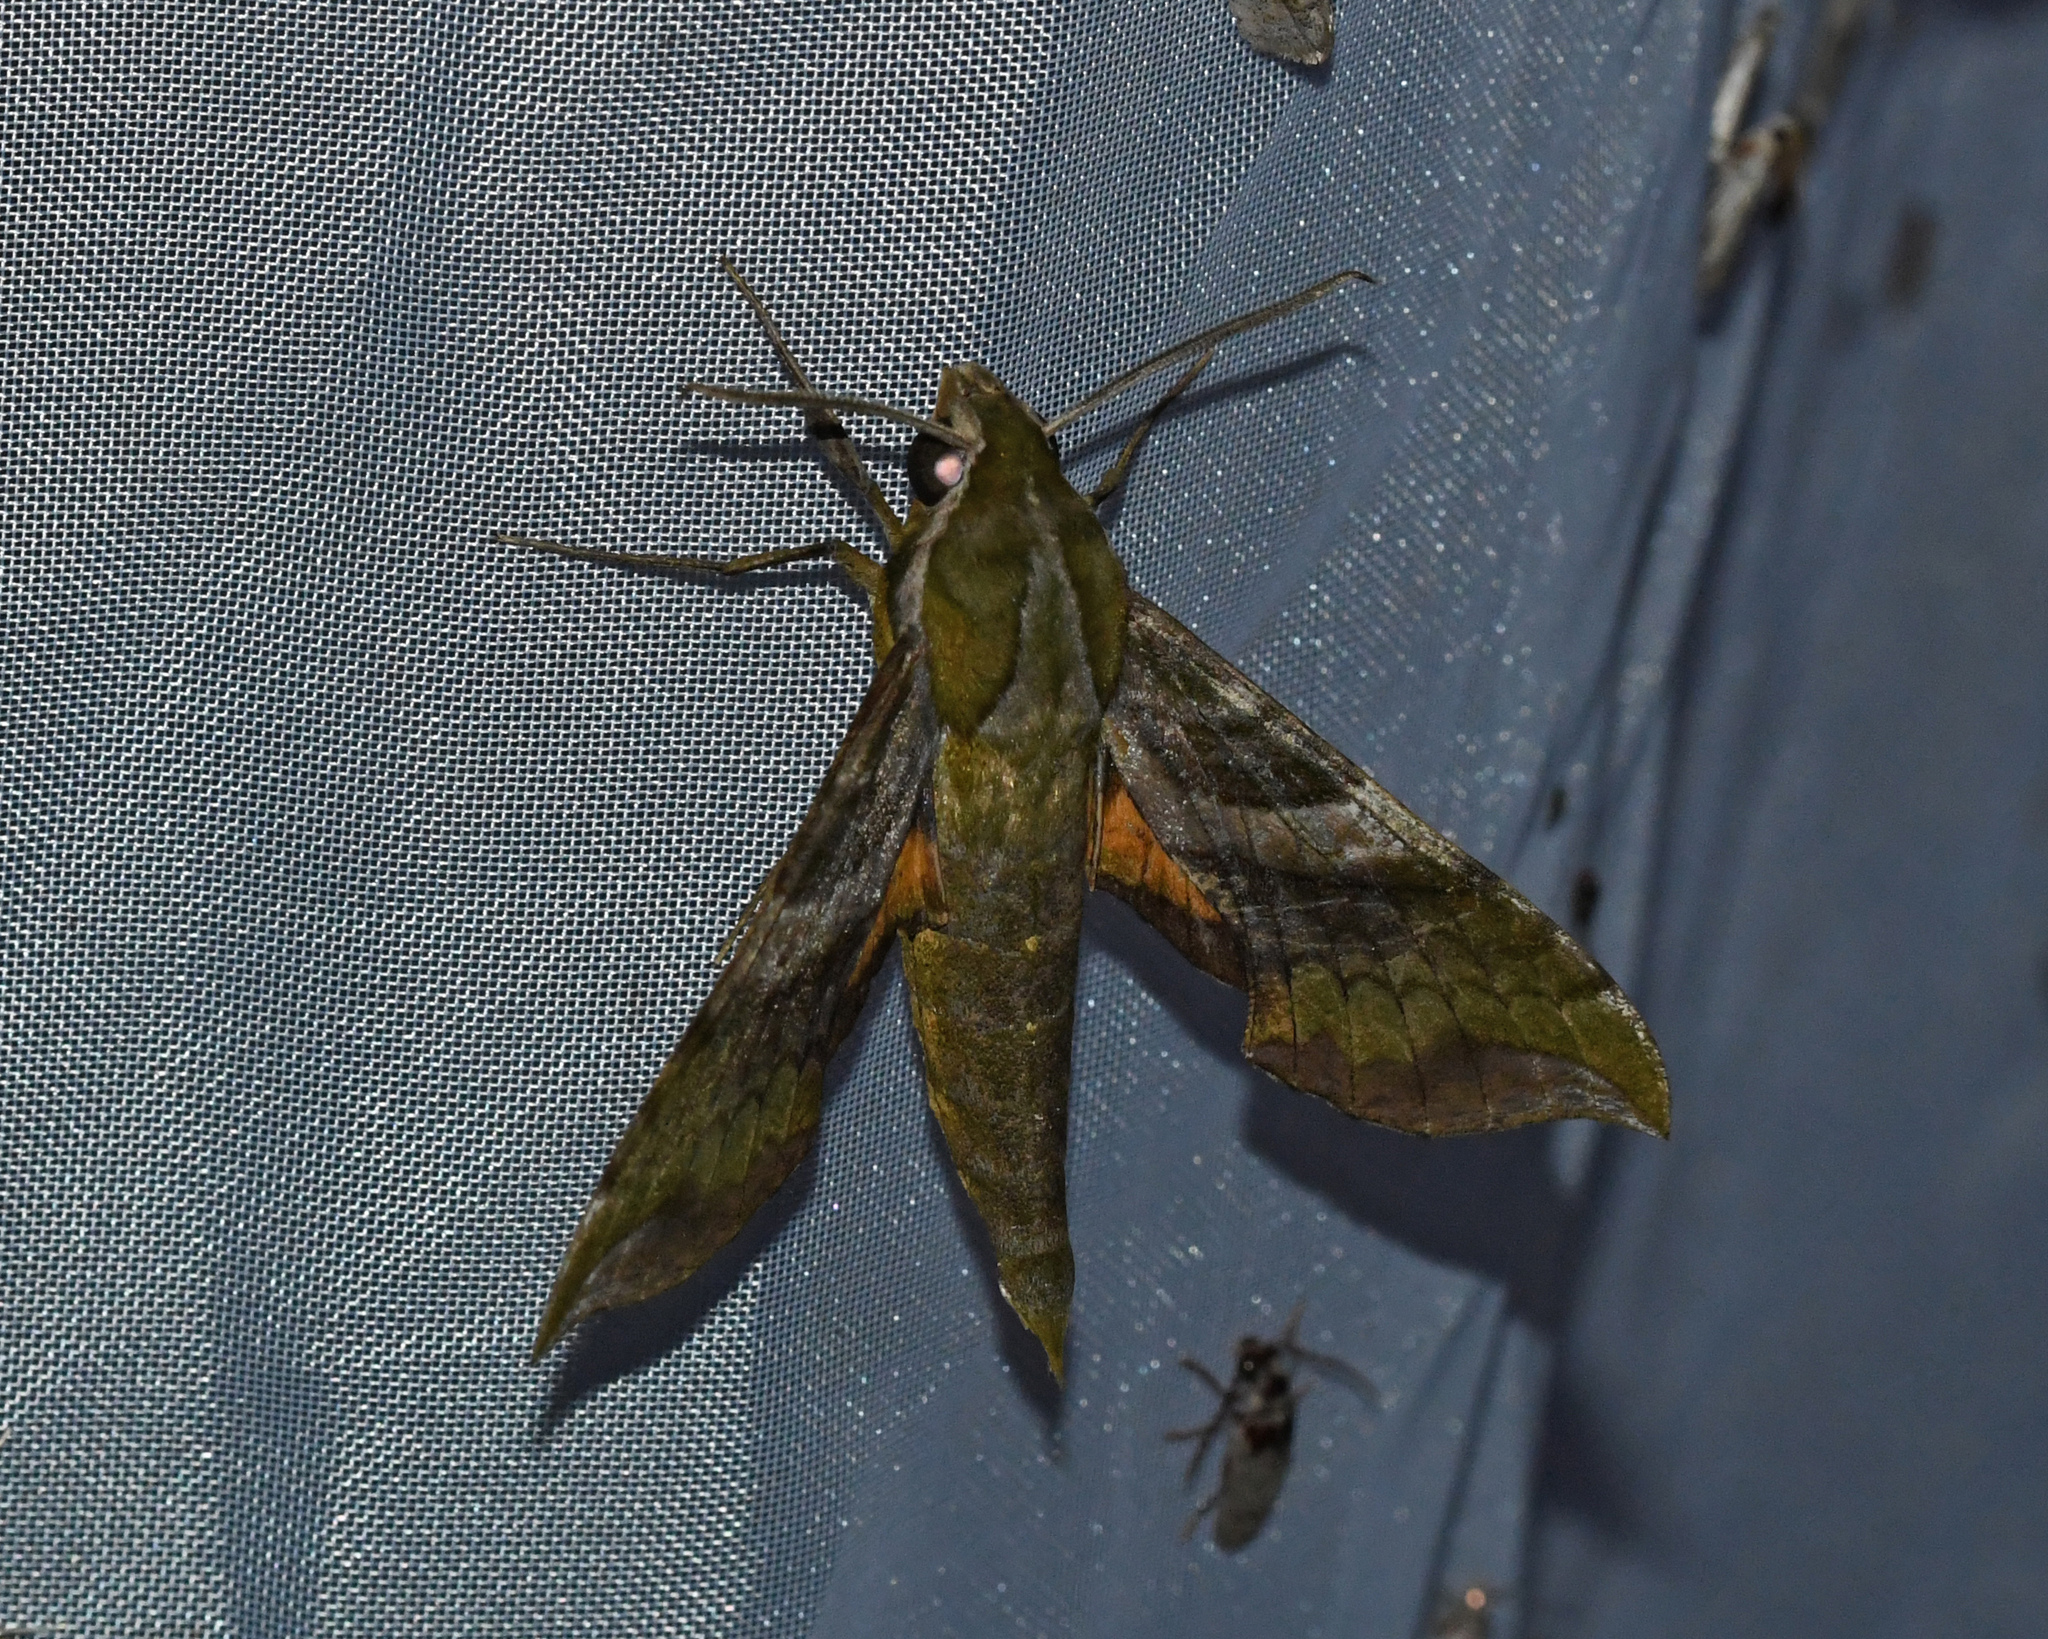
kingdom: Animalia
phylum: Arthropoda
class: Insecta
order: Lepidoptera
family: Sphingidae
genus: Xylophanes
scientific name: Xylophanes pluto
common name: Pluto sphinx
